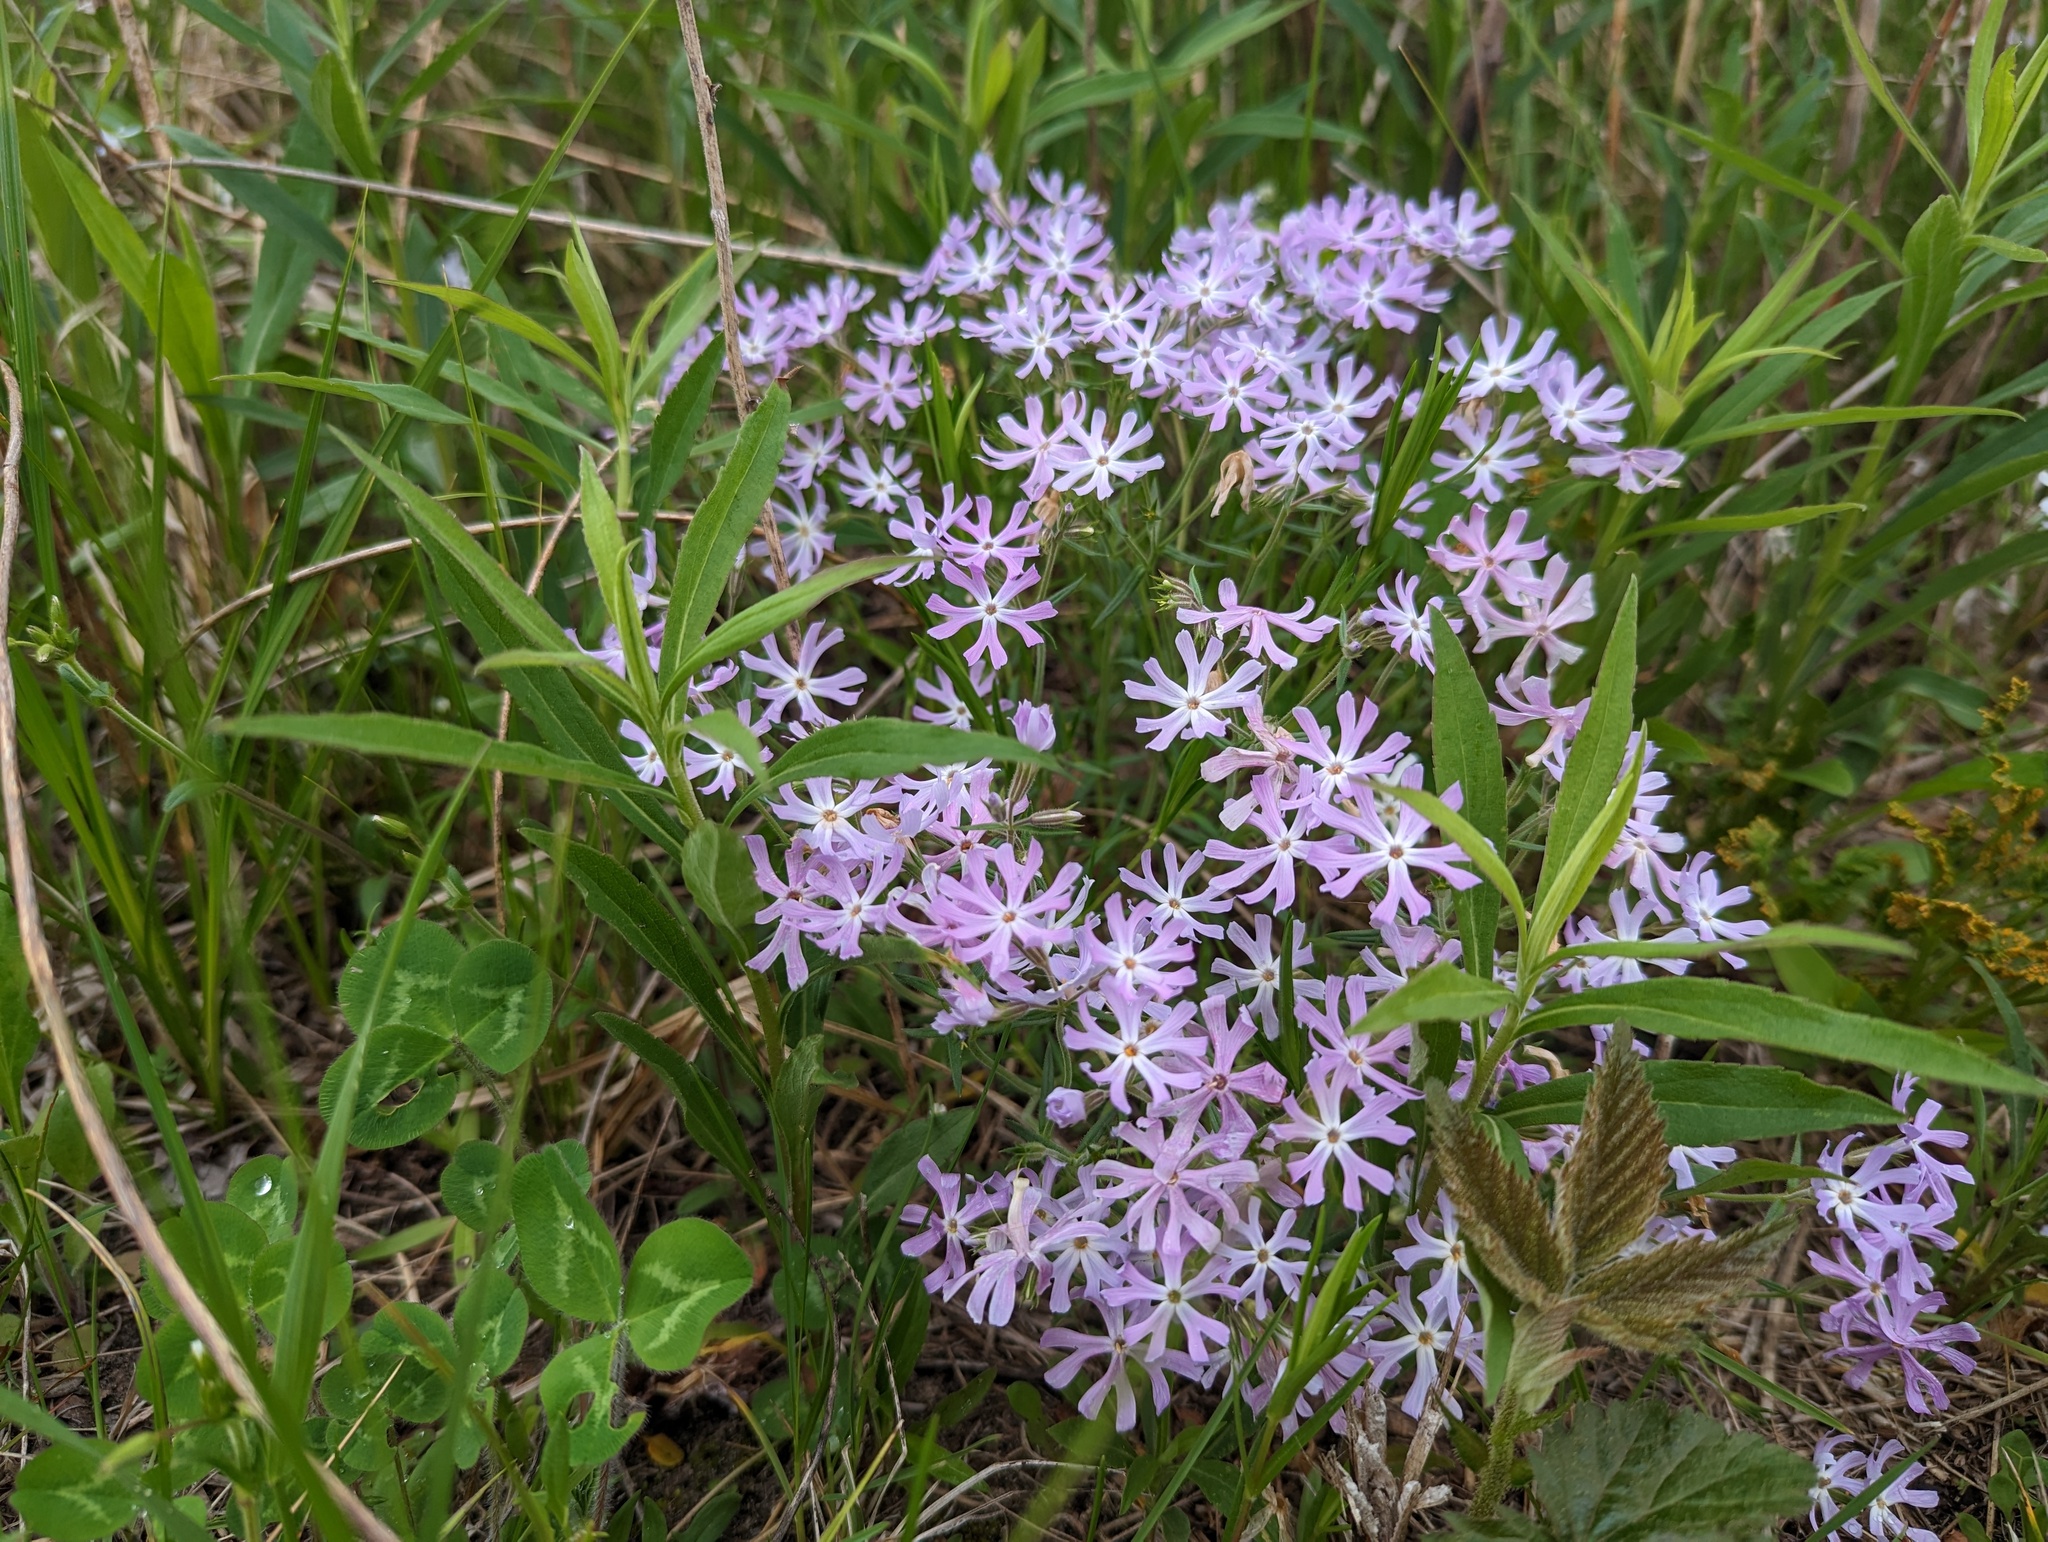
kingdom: Plantae
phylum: Tracheophyta
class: Magnoliopsida
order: Ericales
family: Polemoniaceae
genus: Phlox
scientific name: Phlox bifida
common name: Sand phlox
